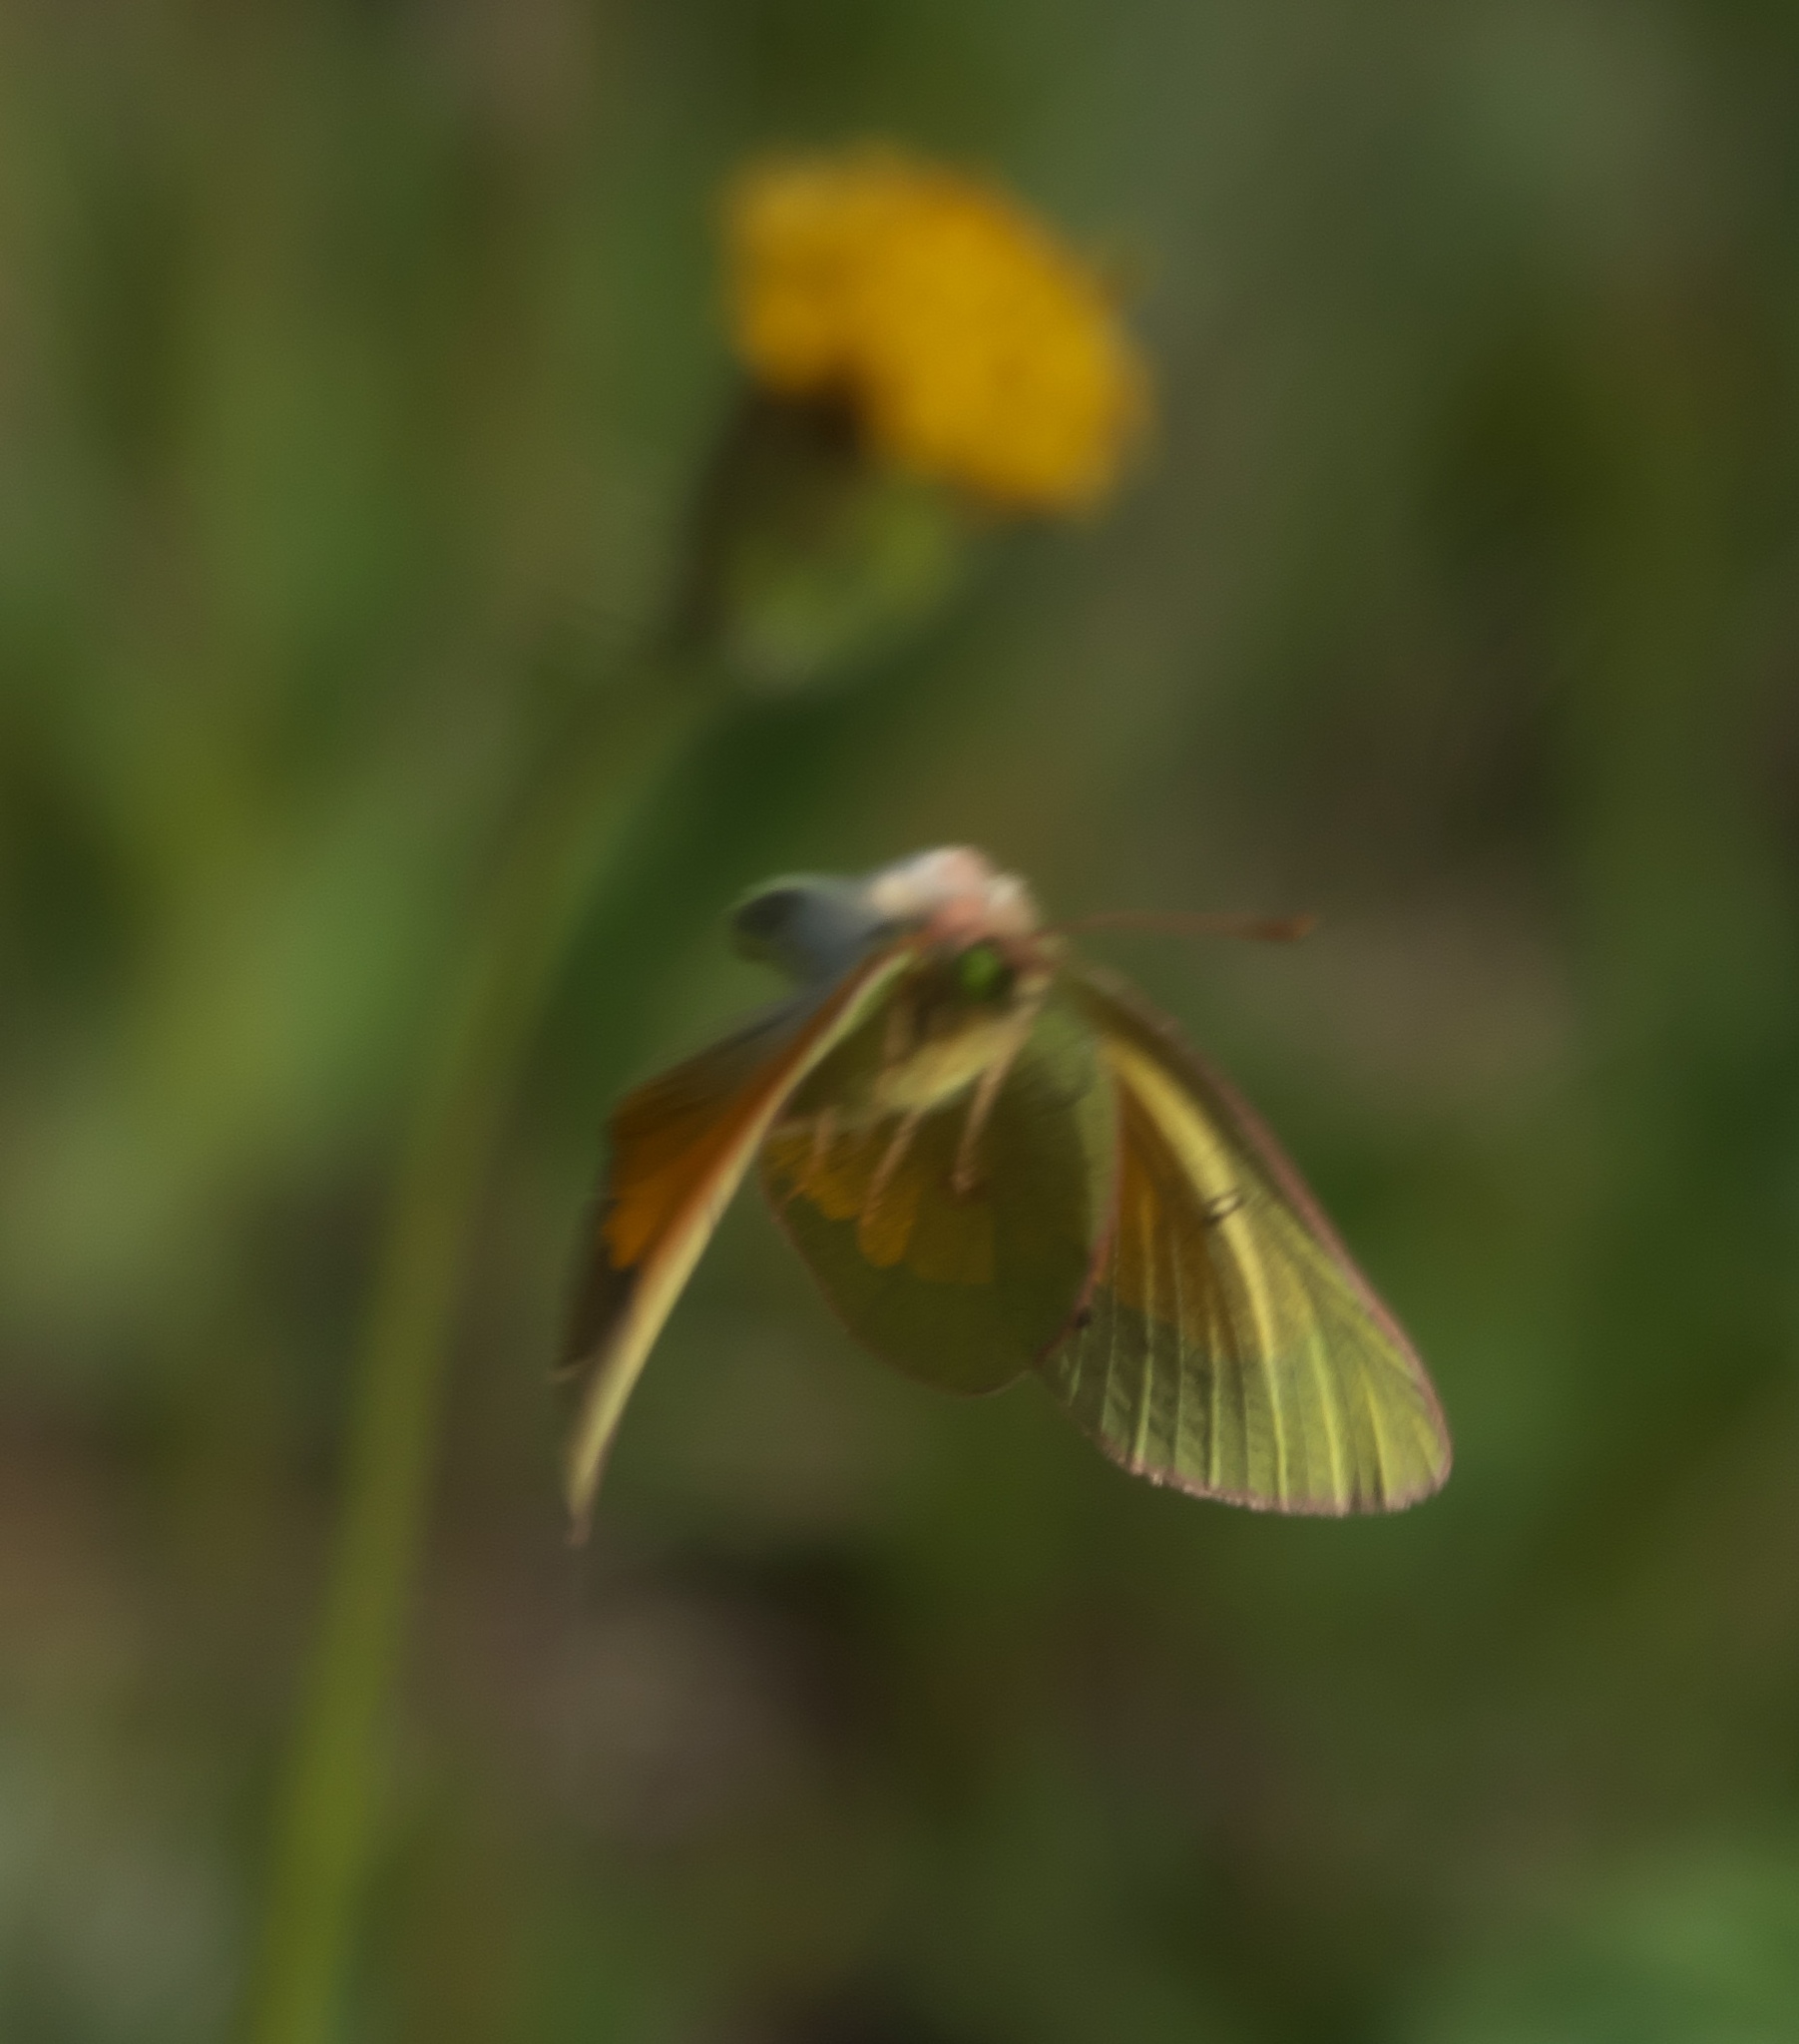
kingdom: Animalia
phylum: Arthropoda
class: Insecta
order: Lepidoptera
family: Pieridae
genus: Colias
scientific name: Colias meadii
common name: Mead's sulphur
